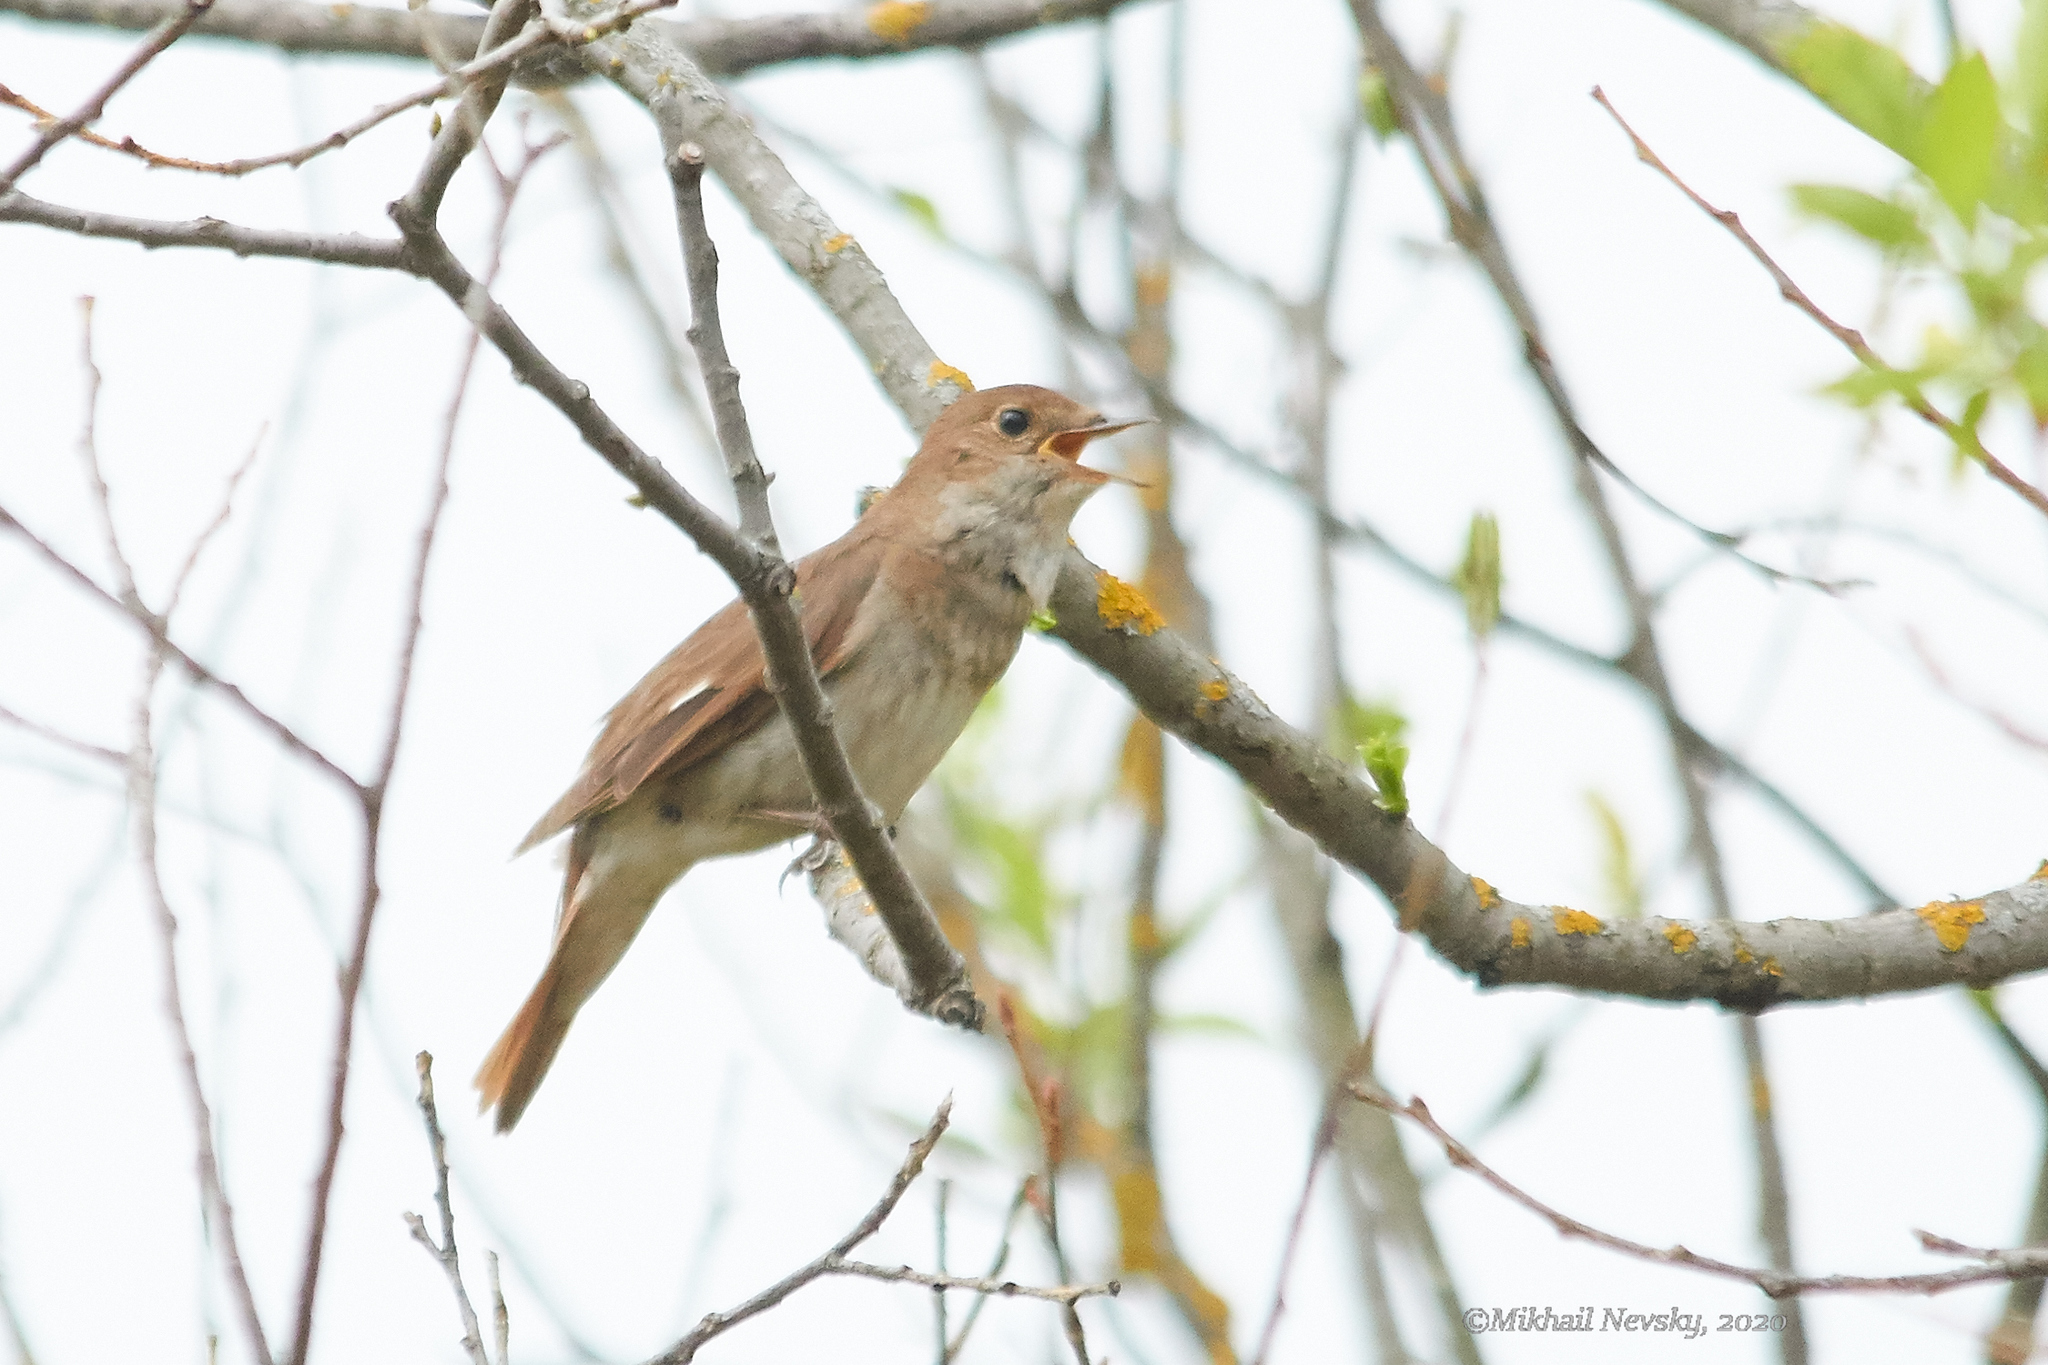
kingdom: Animalia
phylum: Chordata
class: Aves
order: Passeriformes
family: Muscicapidae
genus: Luscinia
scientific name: Luscinia luscinia
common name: Thrush nightingale
